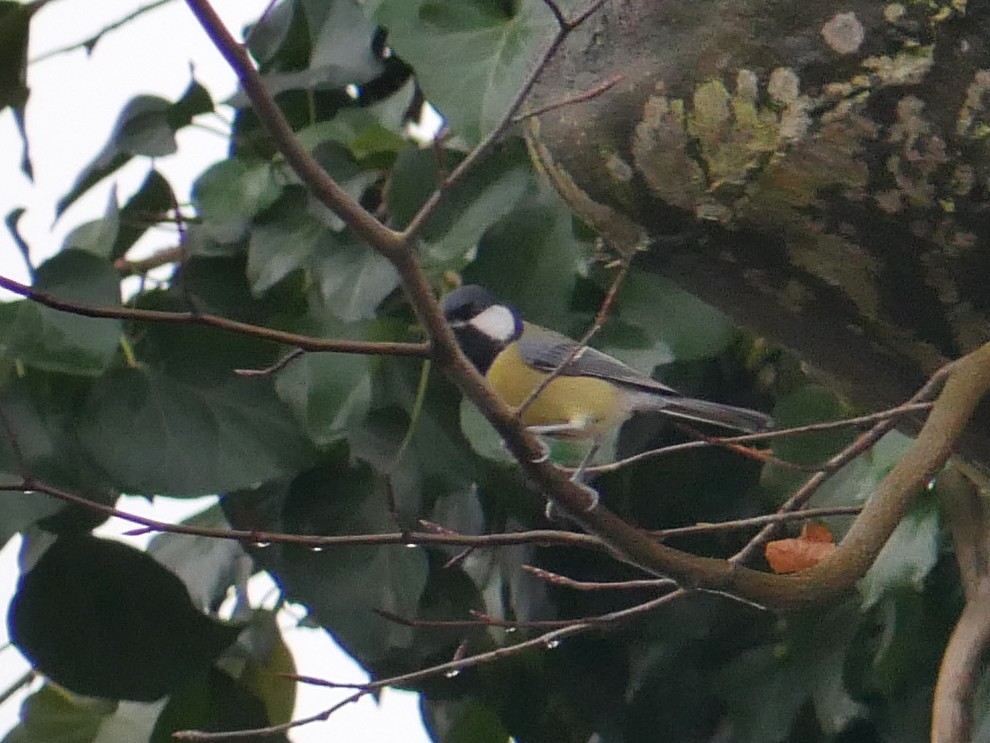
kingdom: Animalia
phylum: Chordata
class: Aves
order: Passeriformes
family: Paridae
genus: Parus
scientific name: Parus major
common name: Great tit
